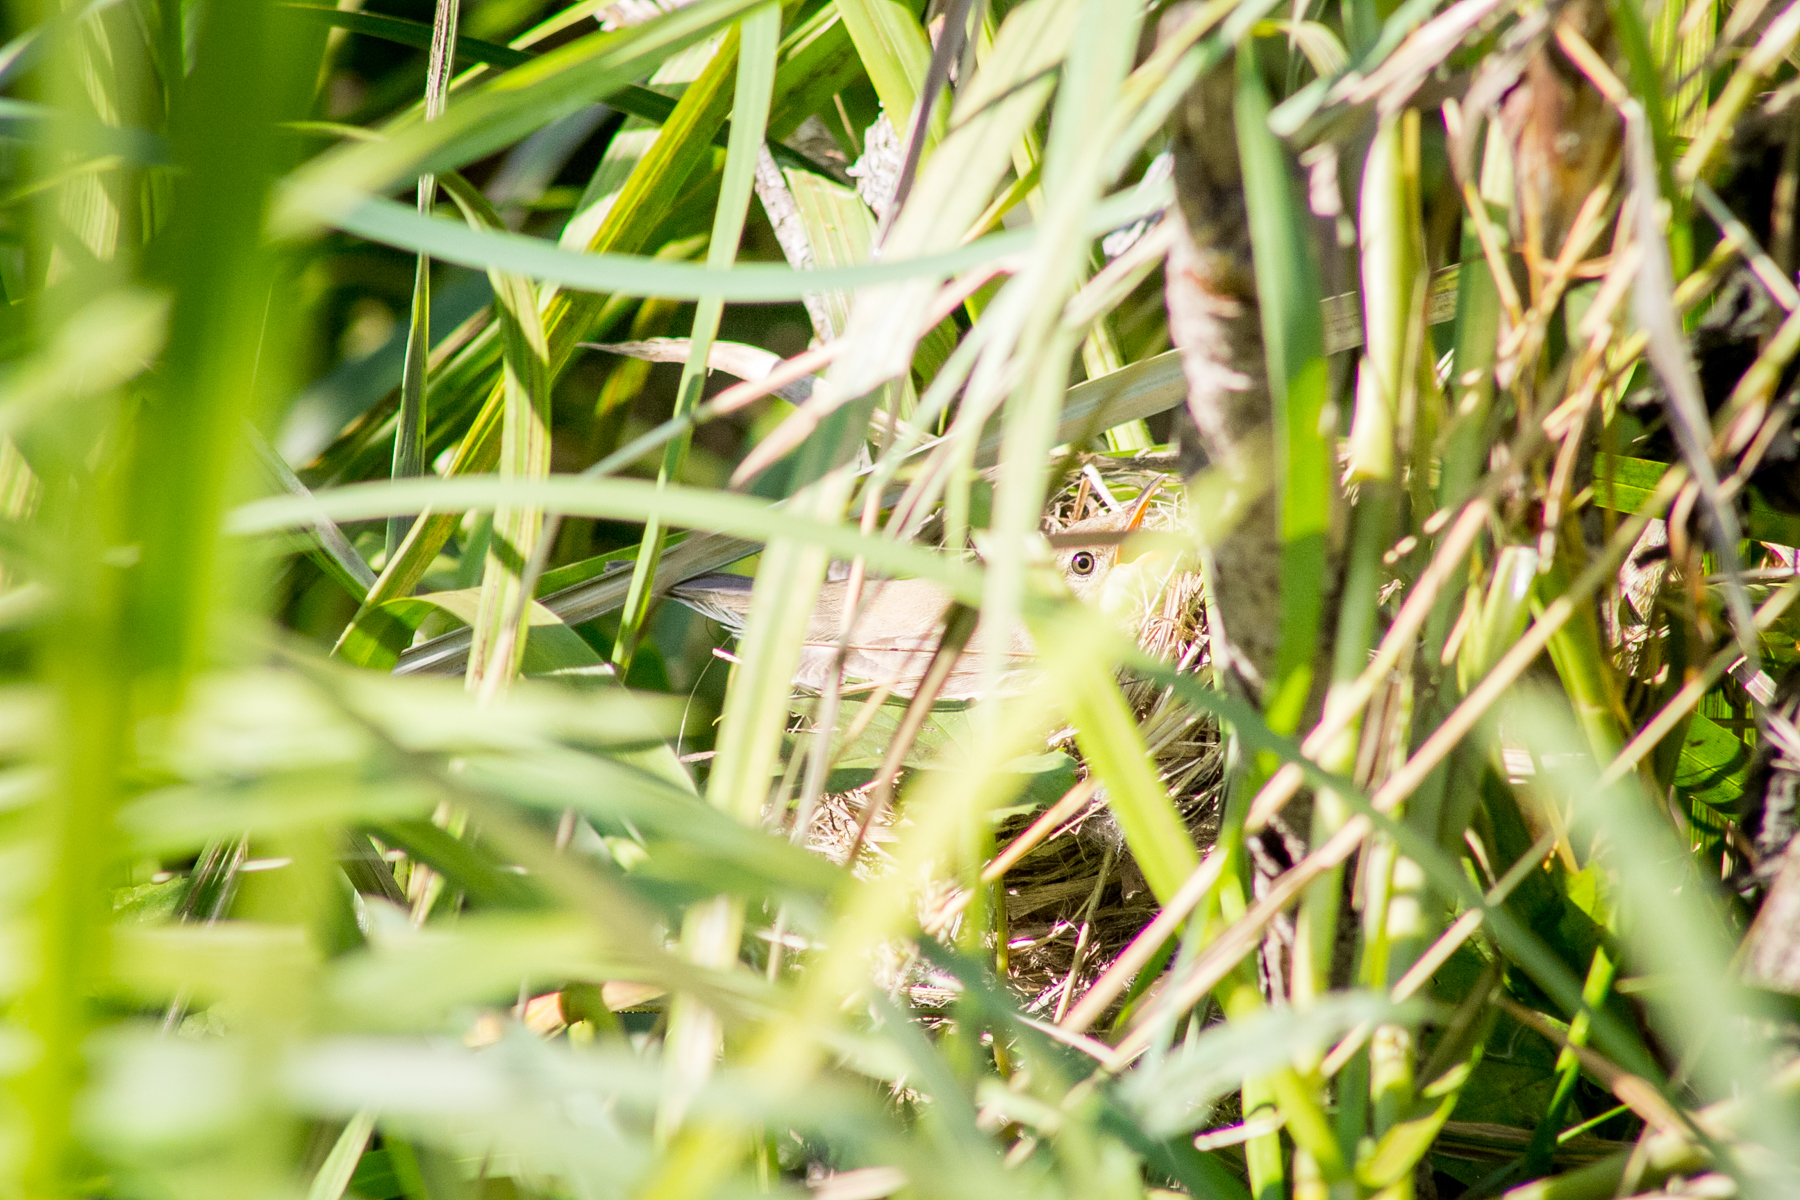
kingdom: Animalia
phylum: Chordata
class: Aves
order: Passeriformes
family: Acrocephalidae
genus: Acrocephalus
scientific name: Acrocephalus dumetorum
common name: Blyth's reed warbler
